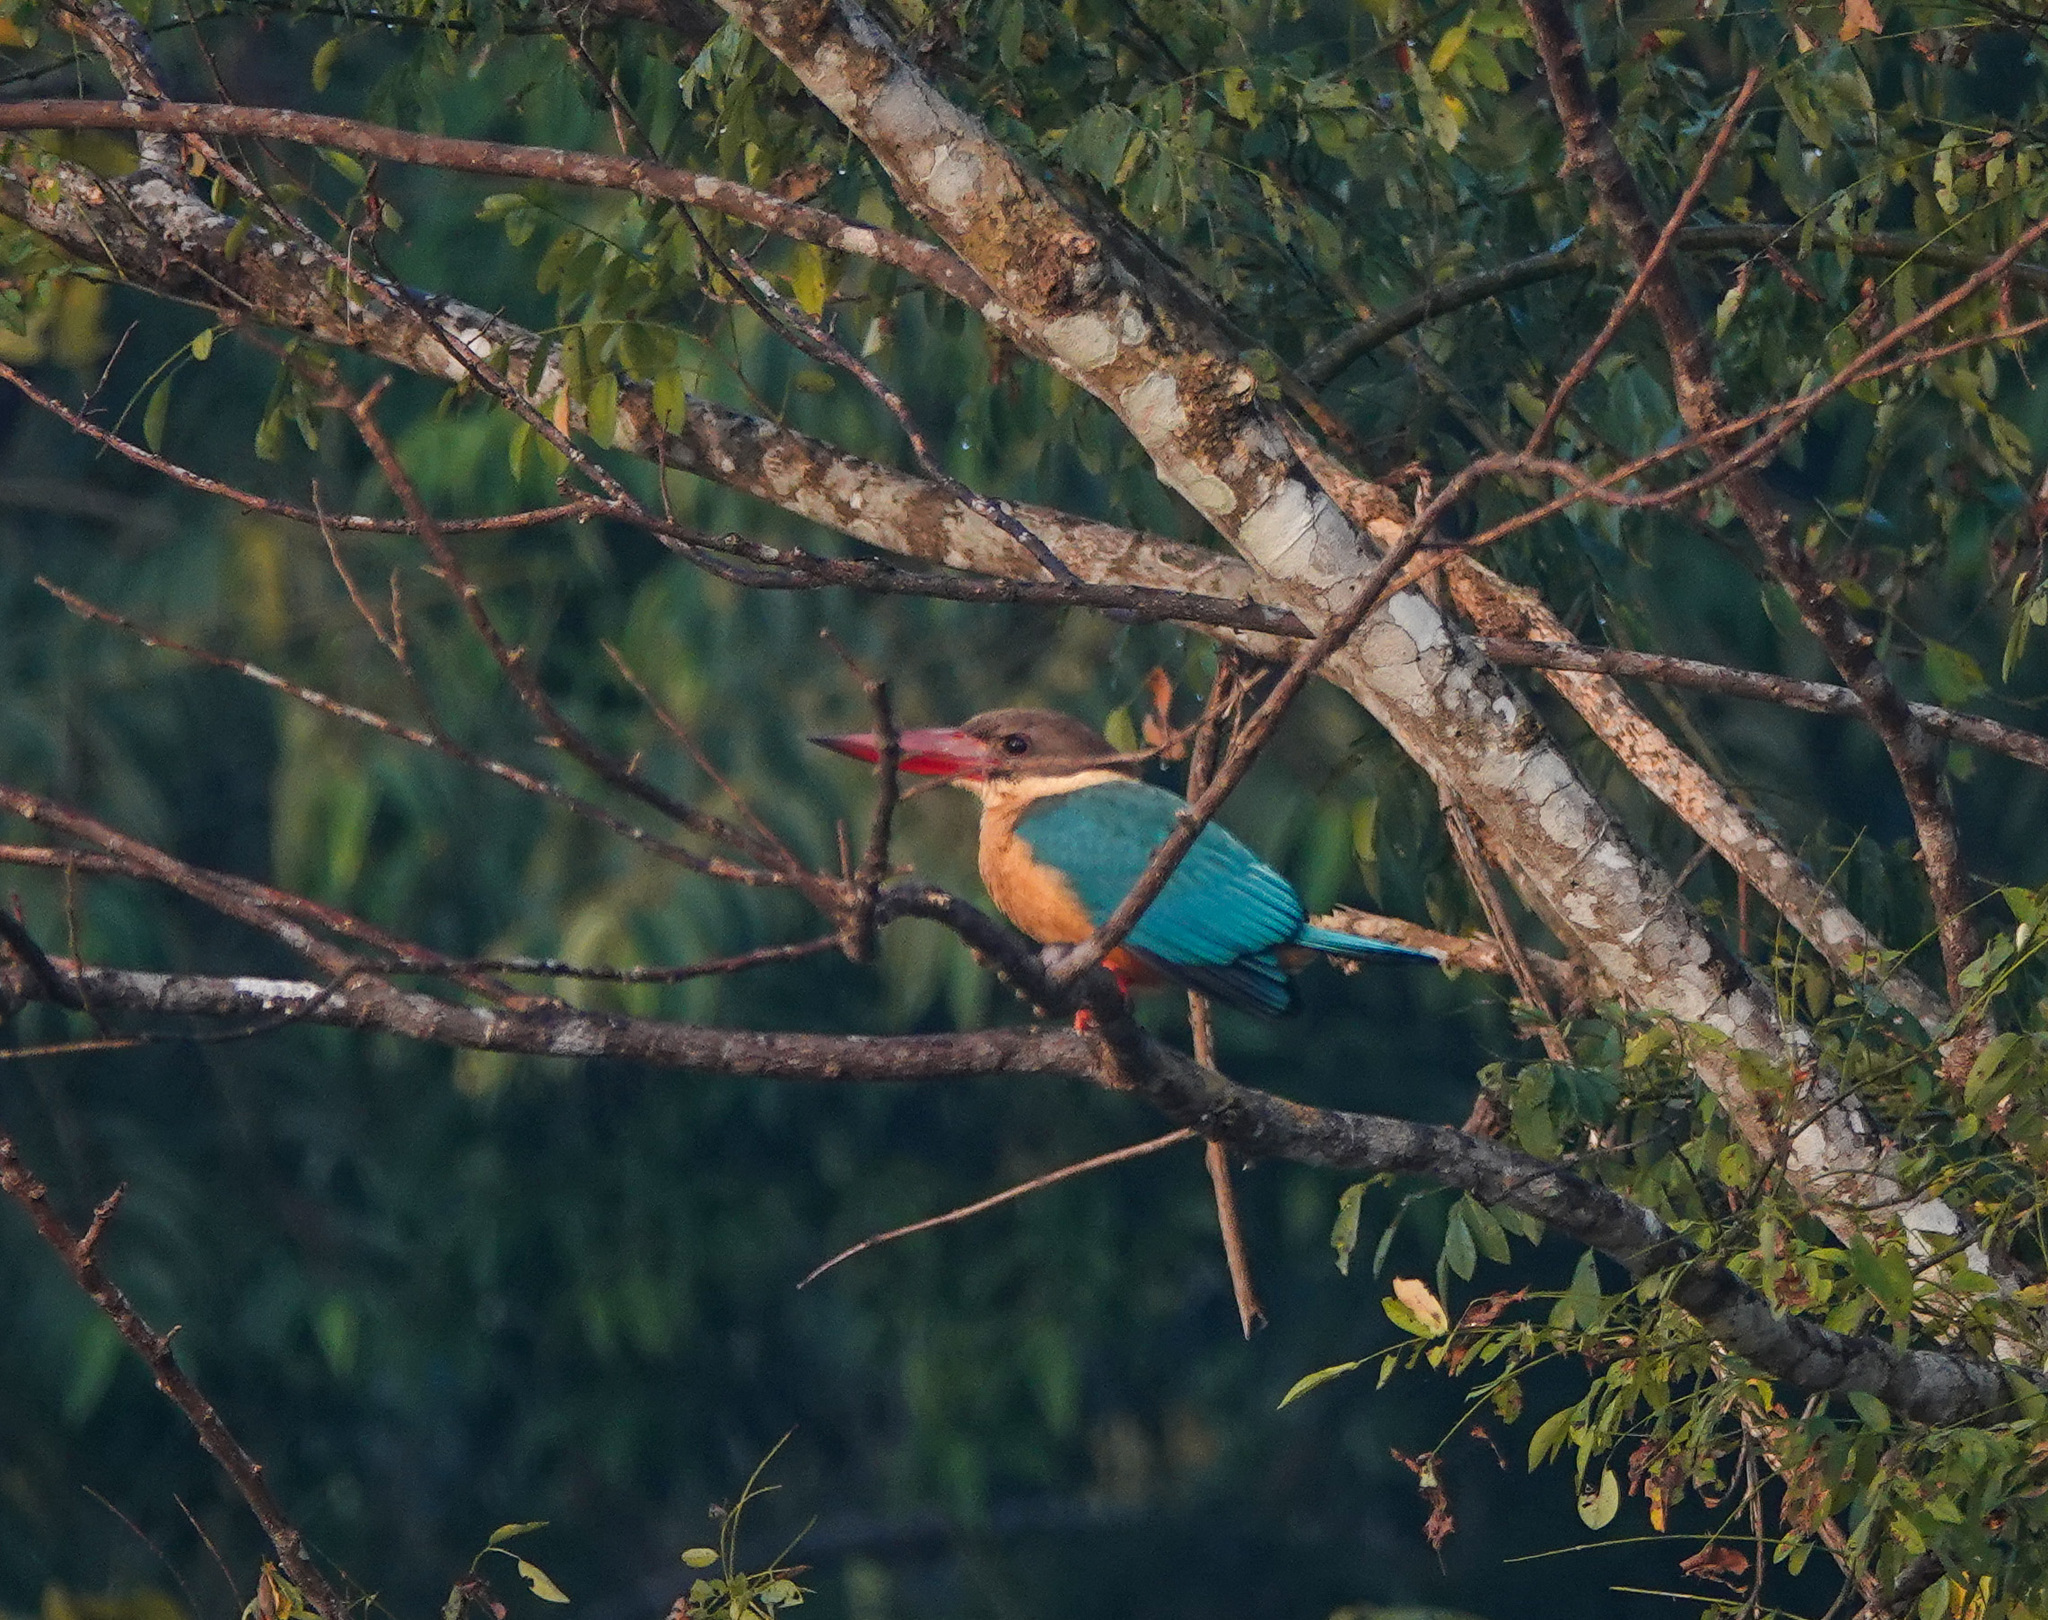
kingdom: Animalia
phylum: Chordata
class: Aves
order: Coraciiformes
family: Alcedinidae
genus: Pelargopsis
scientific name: Pelargopsis capensis
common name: Stork-billed kingfisher
